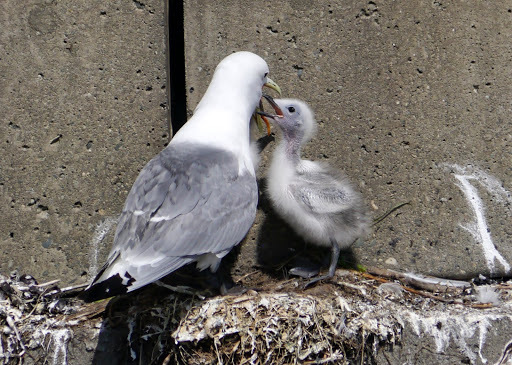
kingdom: Animalia
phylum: Chordata
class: Aves
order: Charadriiformes
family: Laridae
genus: Rissa
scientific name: Rissa tridactyla
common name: Black-legged kittiwake
